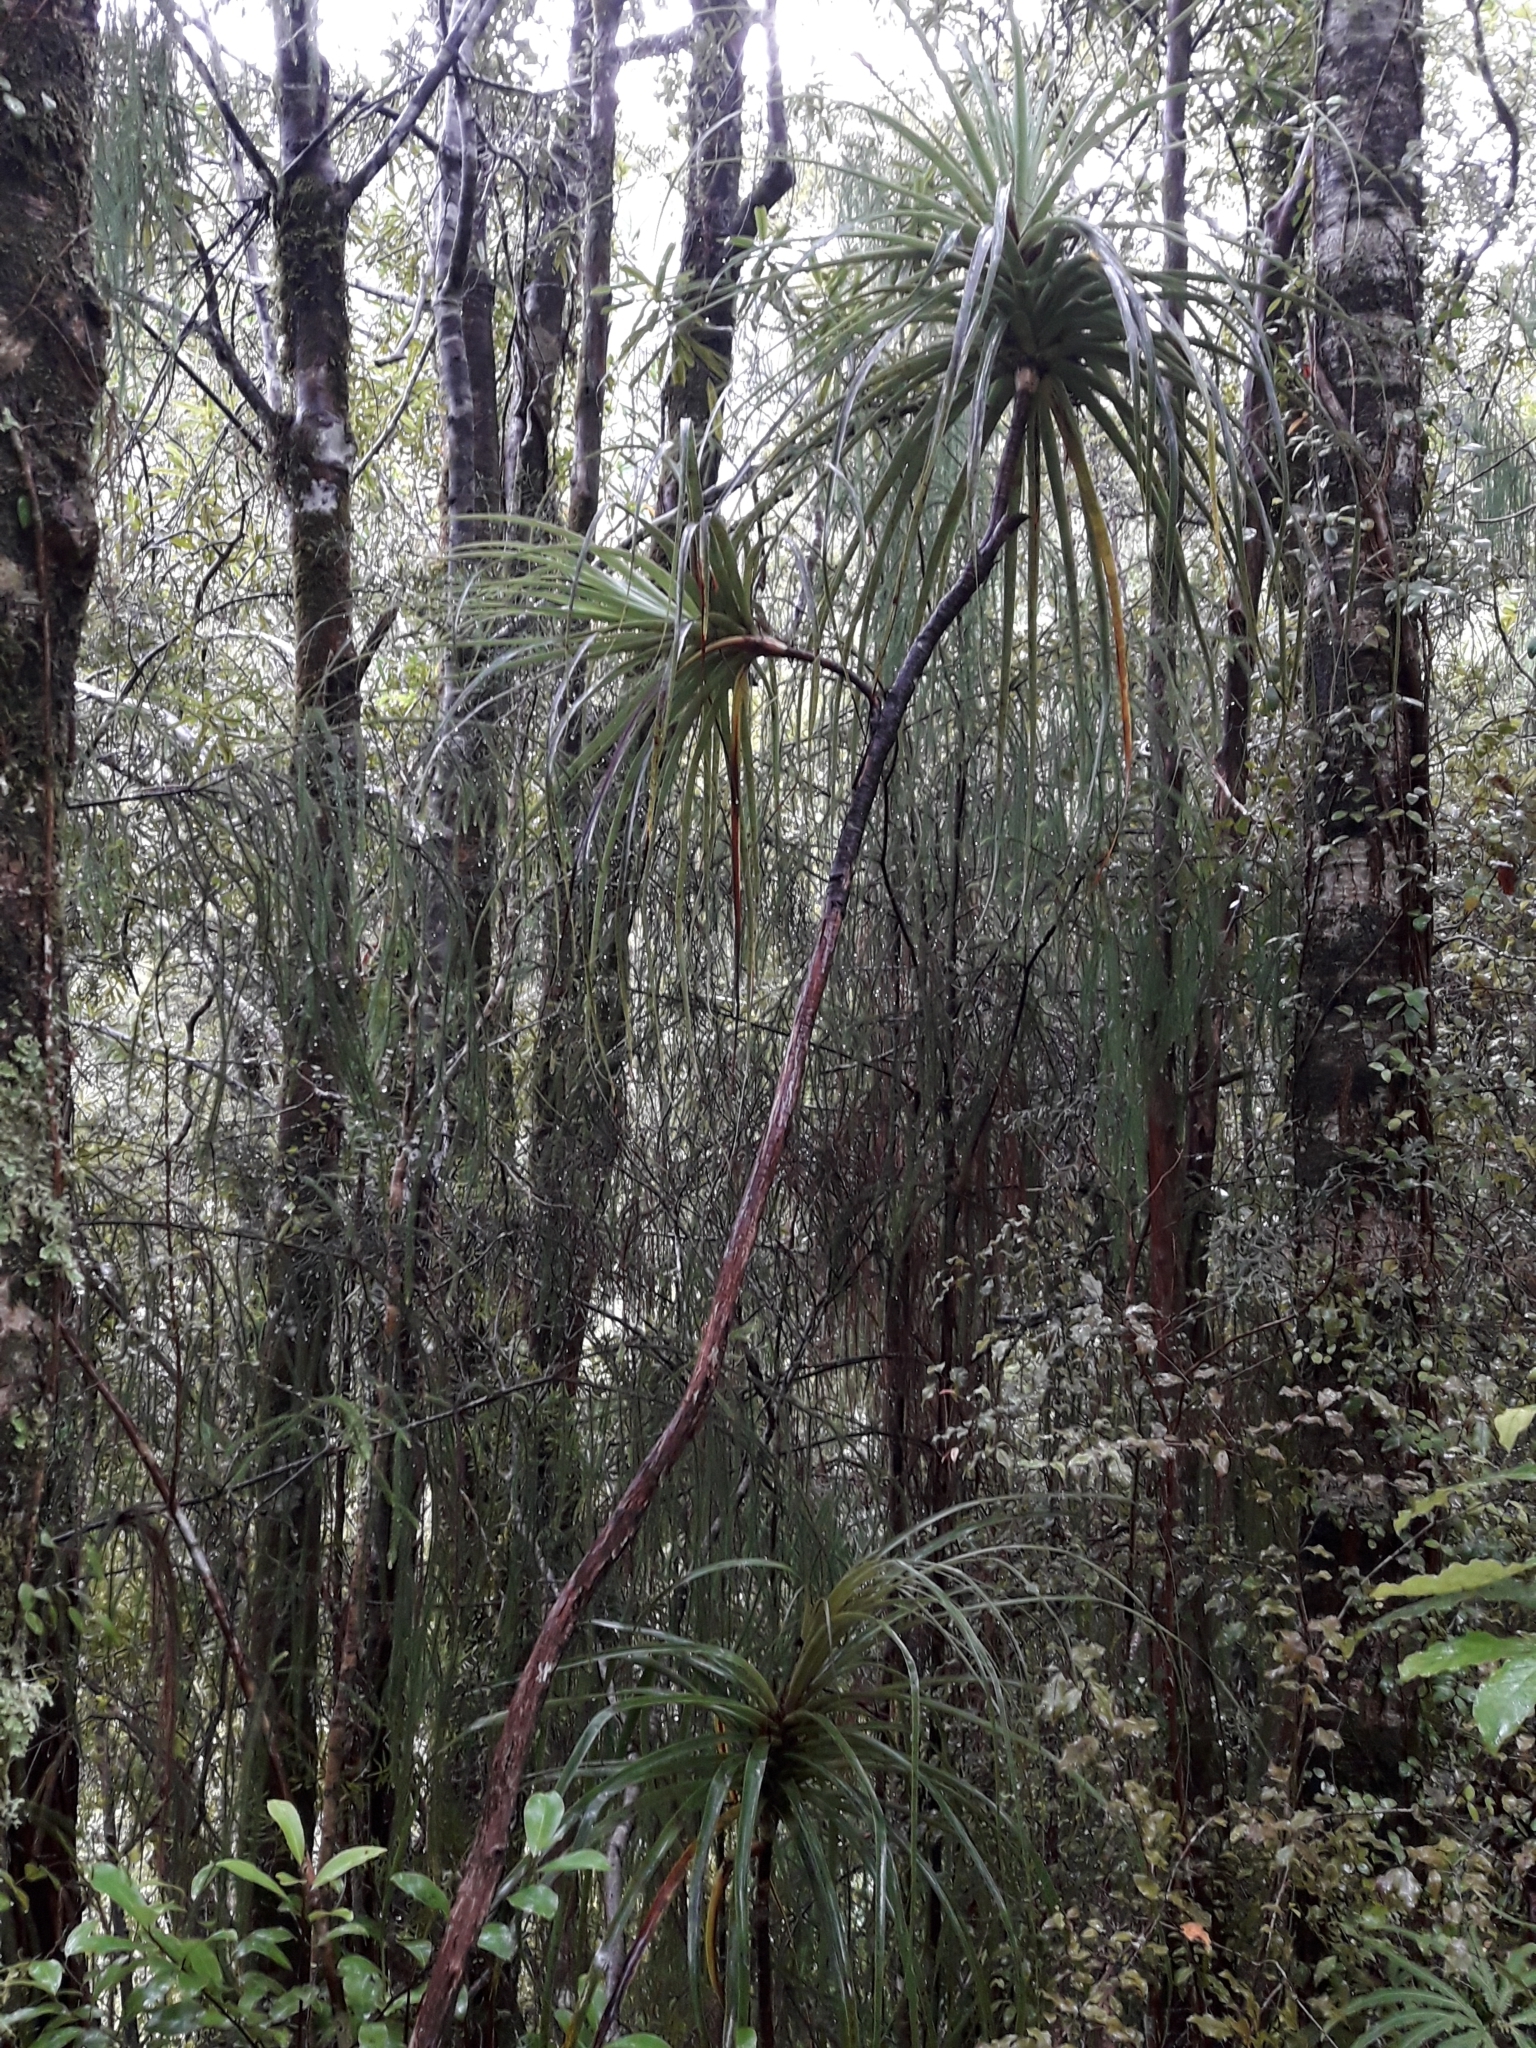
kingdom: Plantae
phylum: Tracheophyta
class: Magnoliopsida
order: Ericales
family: Ericaceae
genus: Dracophyllum
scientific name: Dracophyllum elegantissimum
